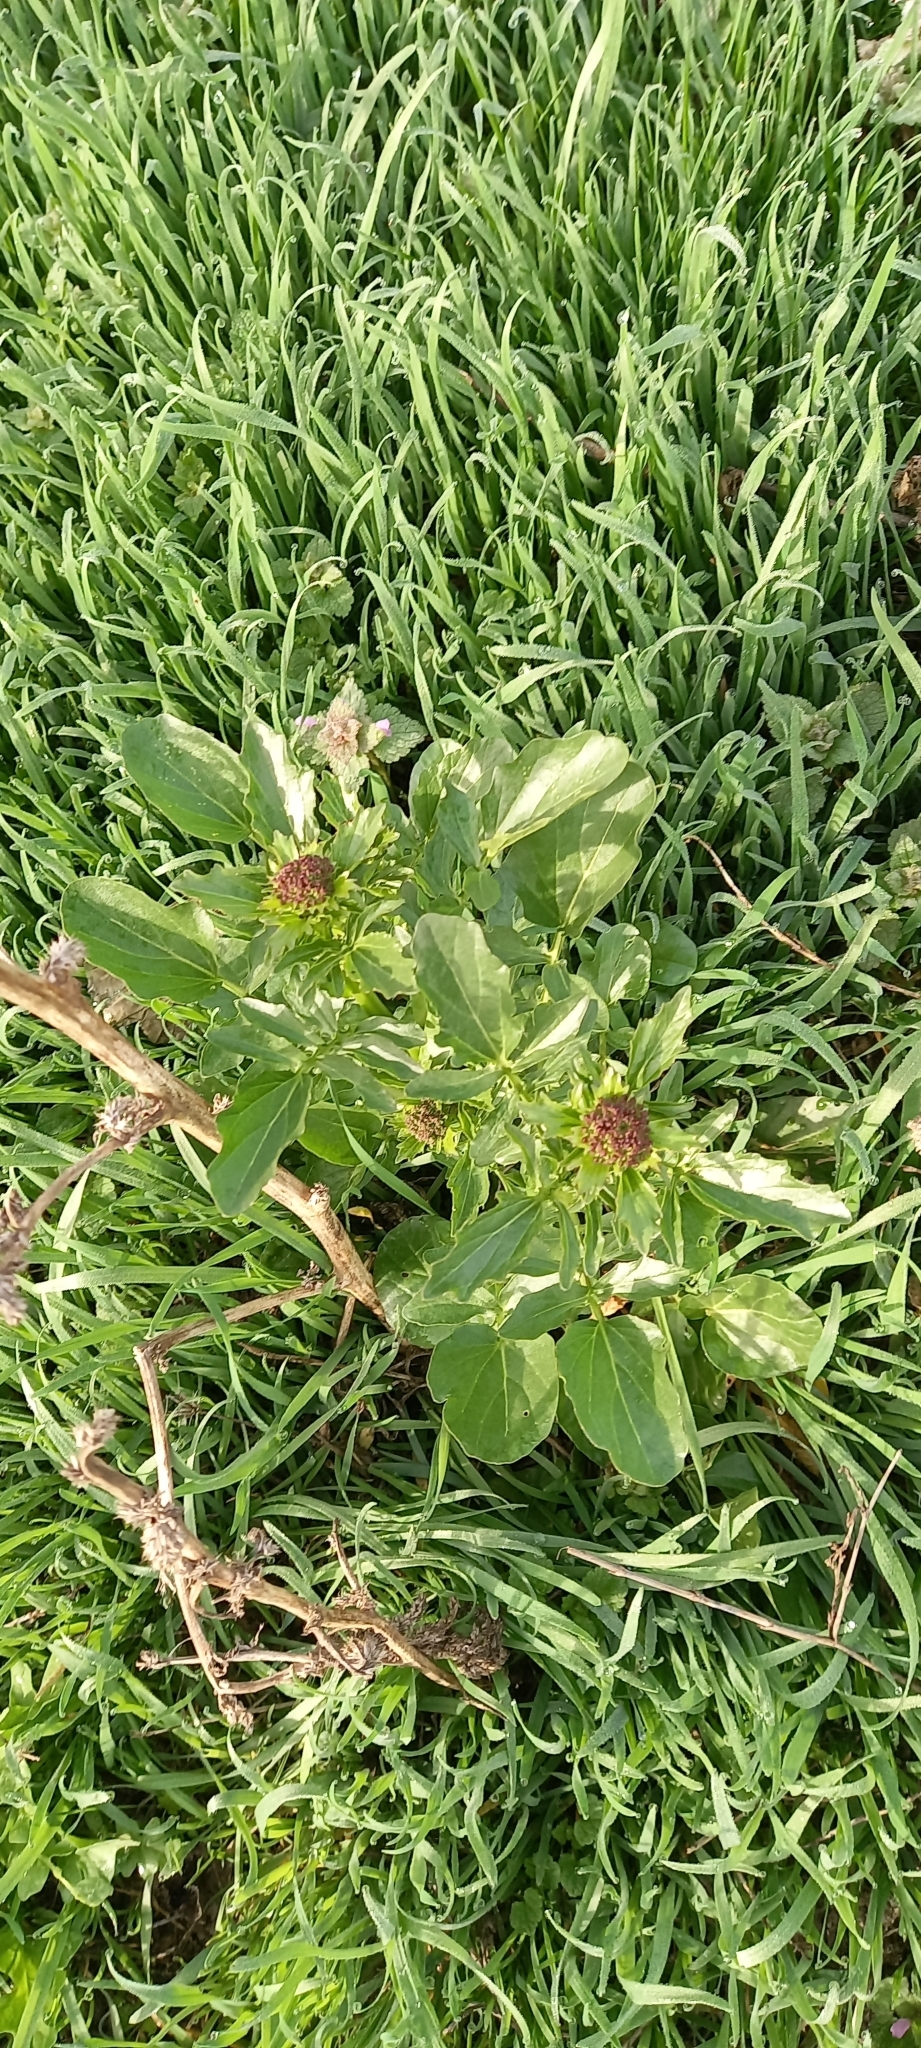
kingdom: Plantae
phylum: Tracheophyta
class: Magnoliopsida
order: Brassicales
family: Brassicaceae
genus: Barbarea
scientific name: Barbarea vulgaris
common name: Cressy-greens
